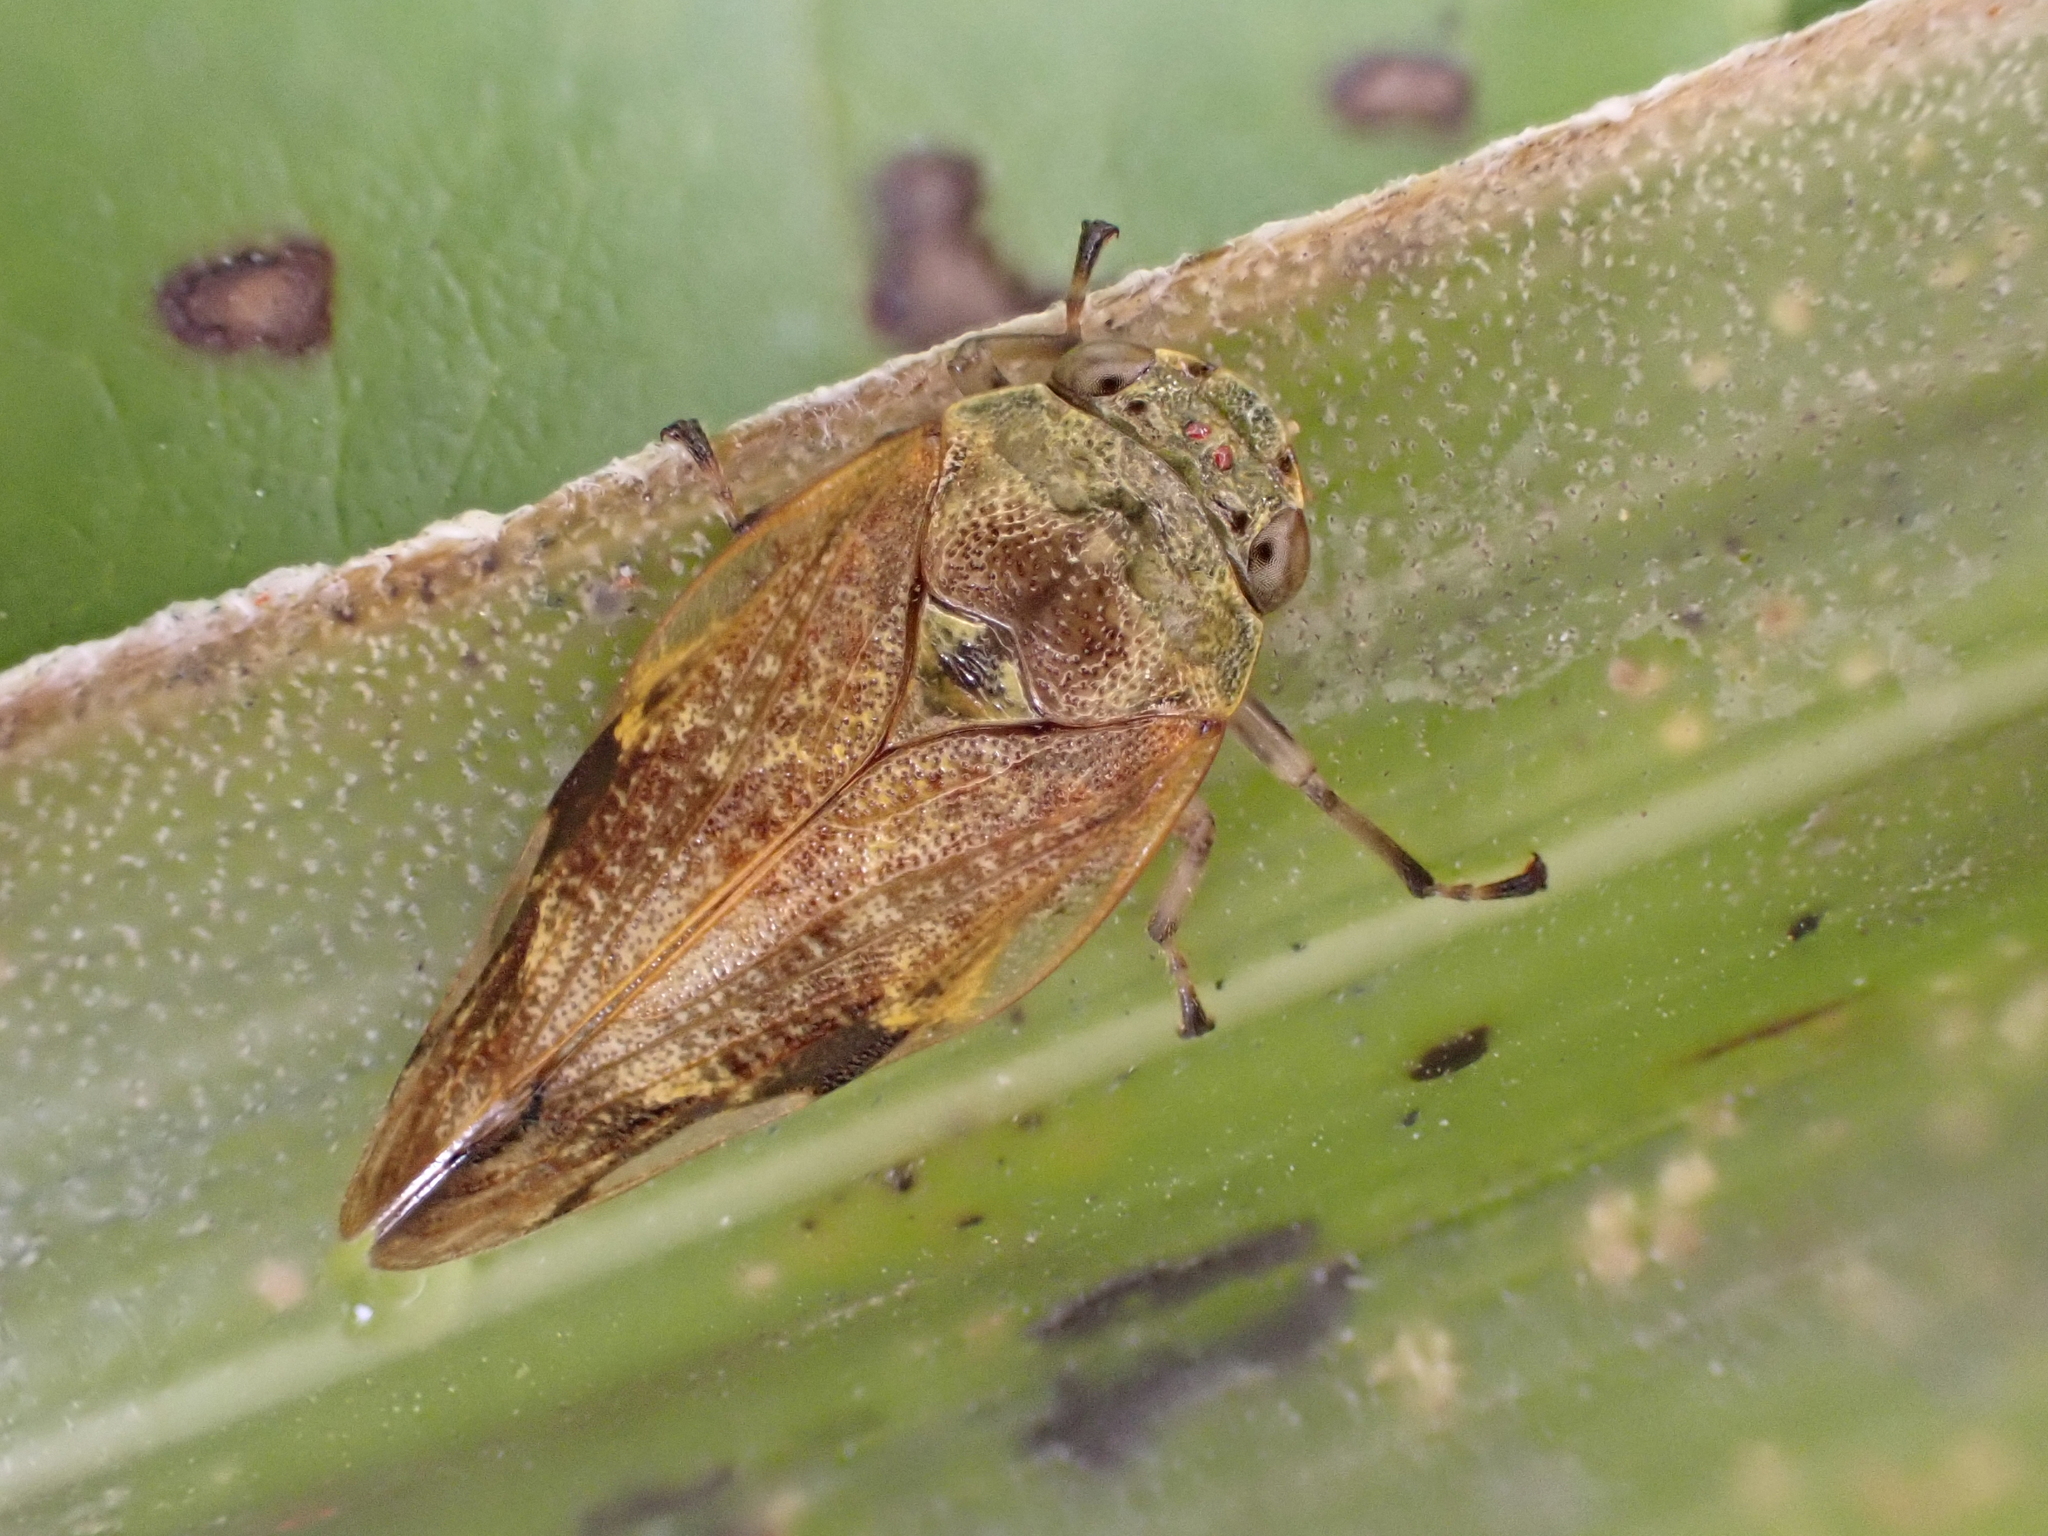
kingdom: Animalia
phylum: Arthropoda
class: Insecta
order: Hemiptera
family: Aphrophoridae
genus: Pseudaphronella
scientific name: Pseudaphronella jactator
